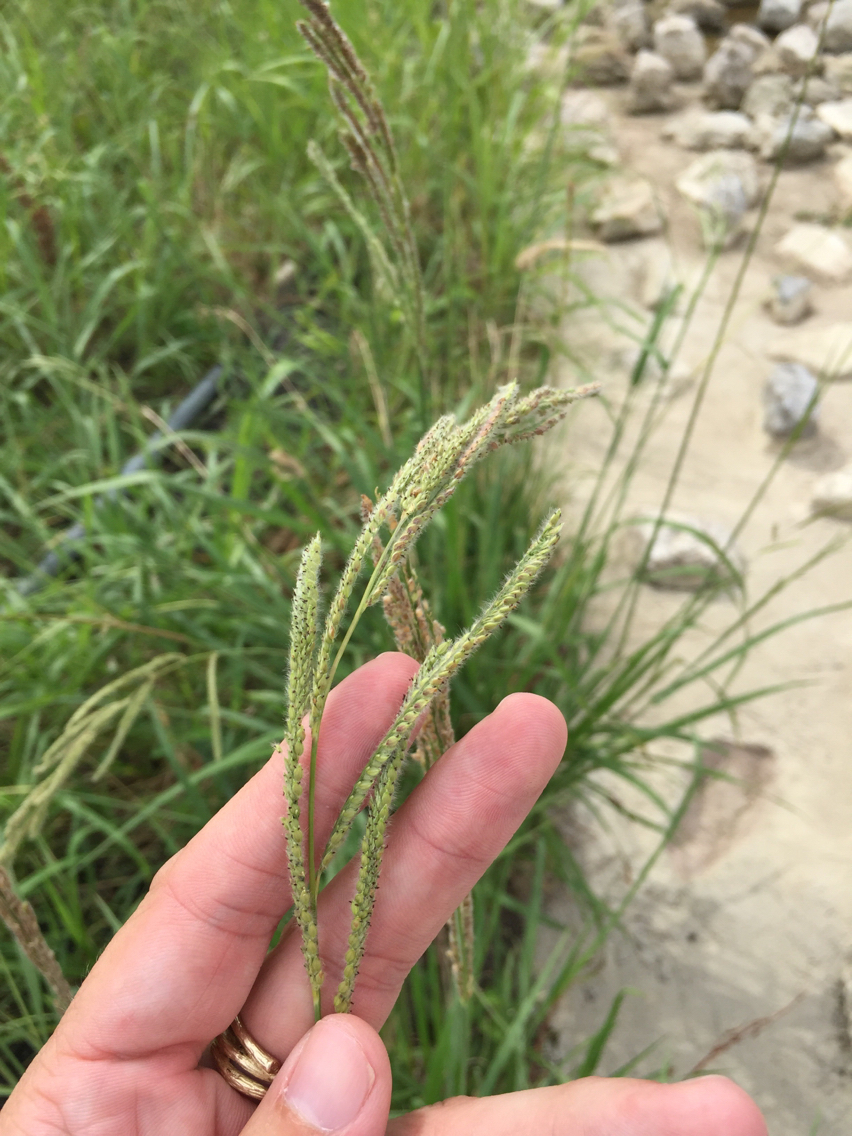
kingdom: Plantae
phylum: Tracheophyta
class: Liliopsida
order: Poales
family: Poaceae
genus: Paspalum
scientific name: Paspalum urvillei
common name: Vasey's grass
